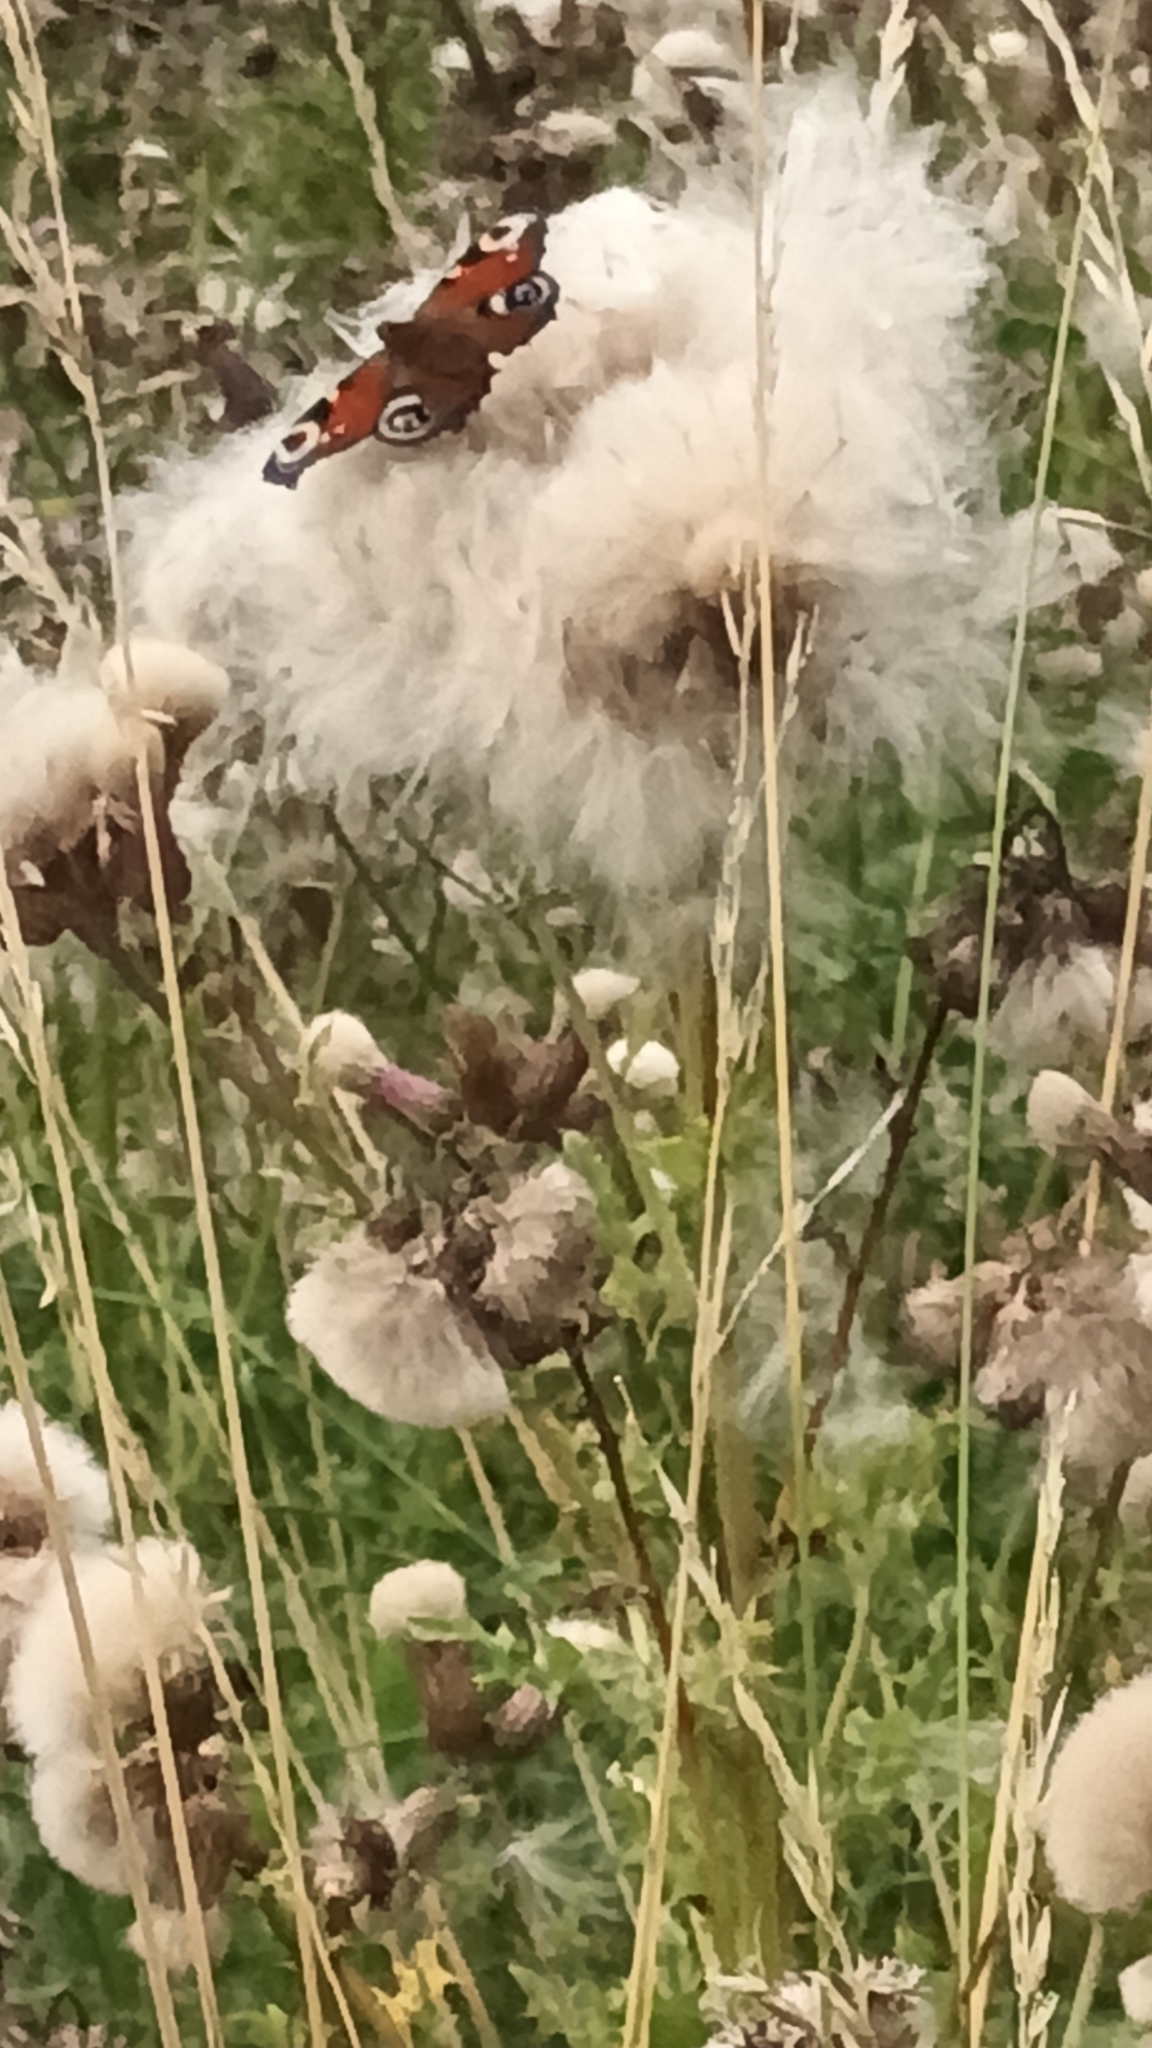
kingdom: Animalia
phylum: Arthropoda
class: Insecta
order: Lepidoptera
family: Nymphalidae
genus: Aglais
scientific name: Aglais io
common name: Peacock
